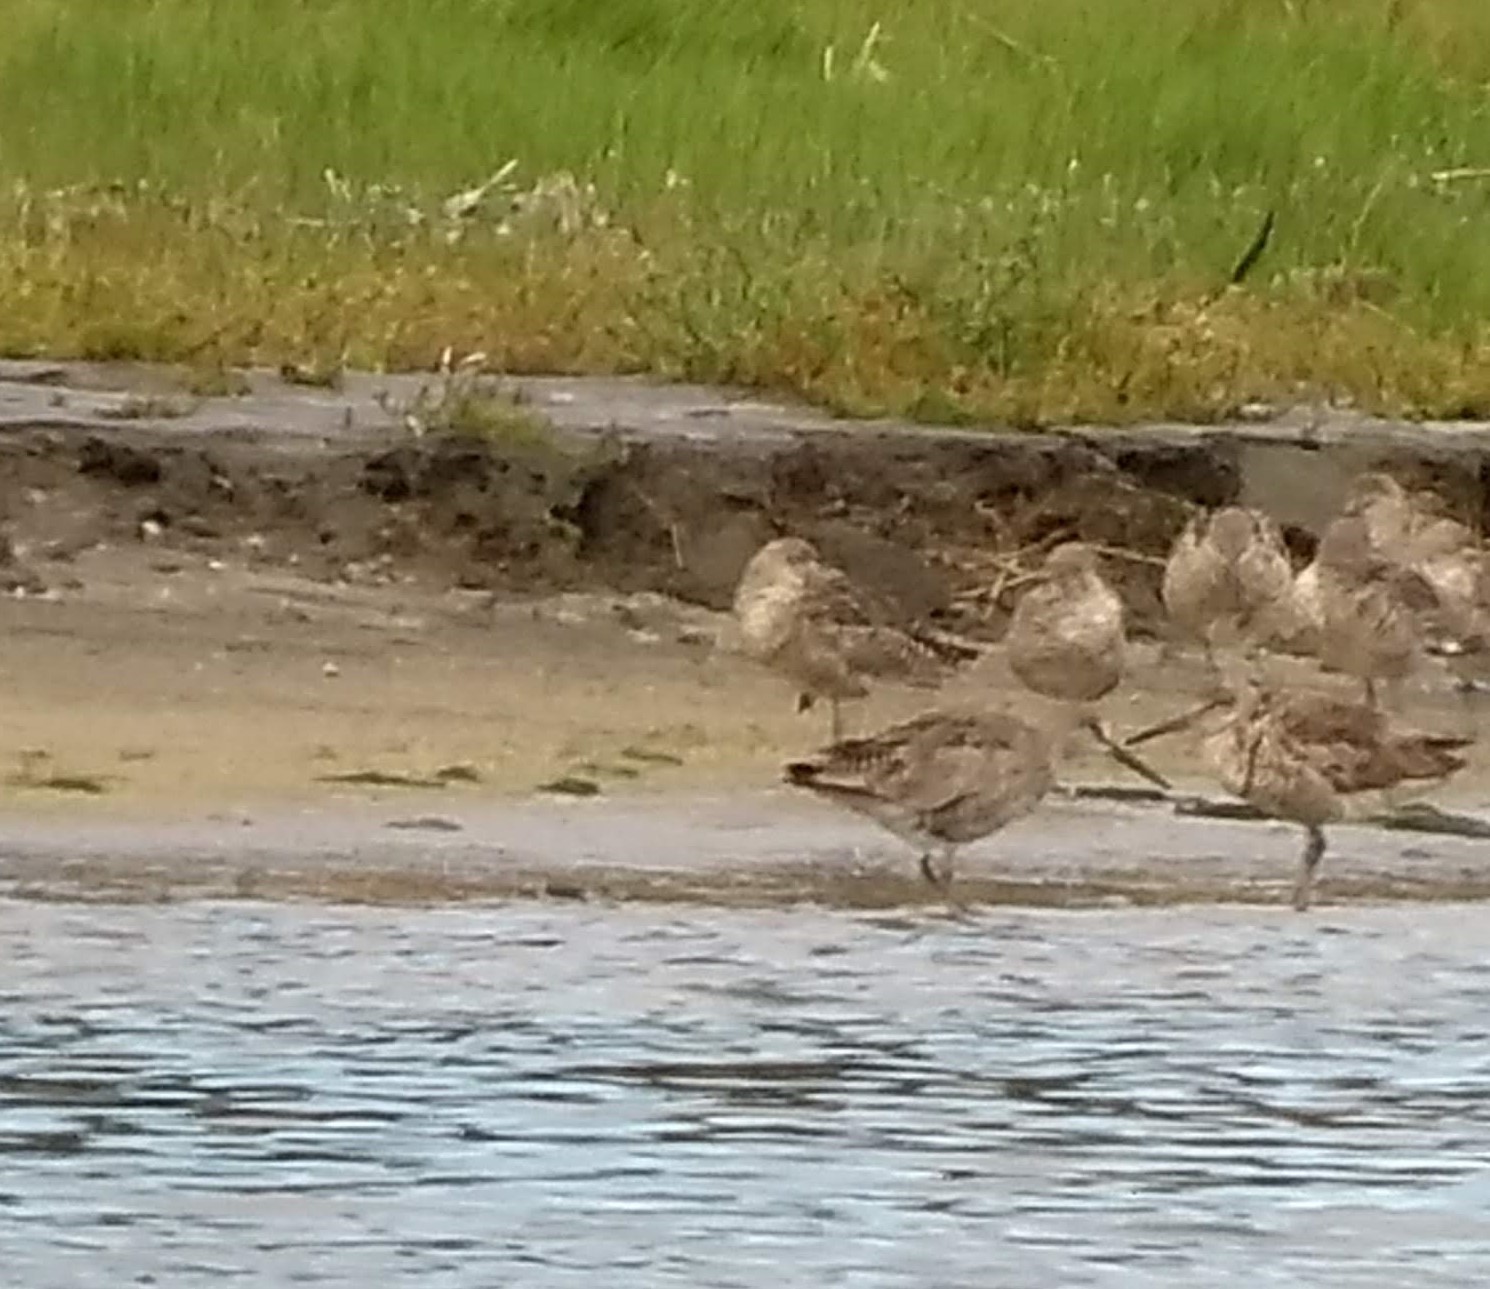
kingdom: Animalia
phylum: Chordata
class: Aves
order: Charadriiformes
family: Scolopacidae
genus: Tringa
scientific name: Tringa semipalmata
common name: Willet
